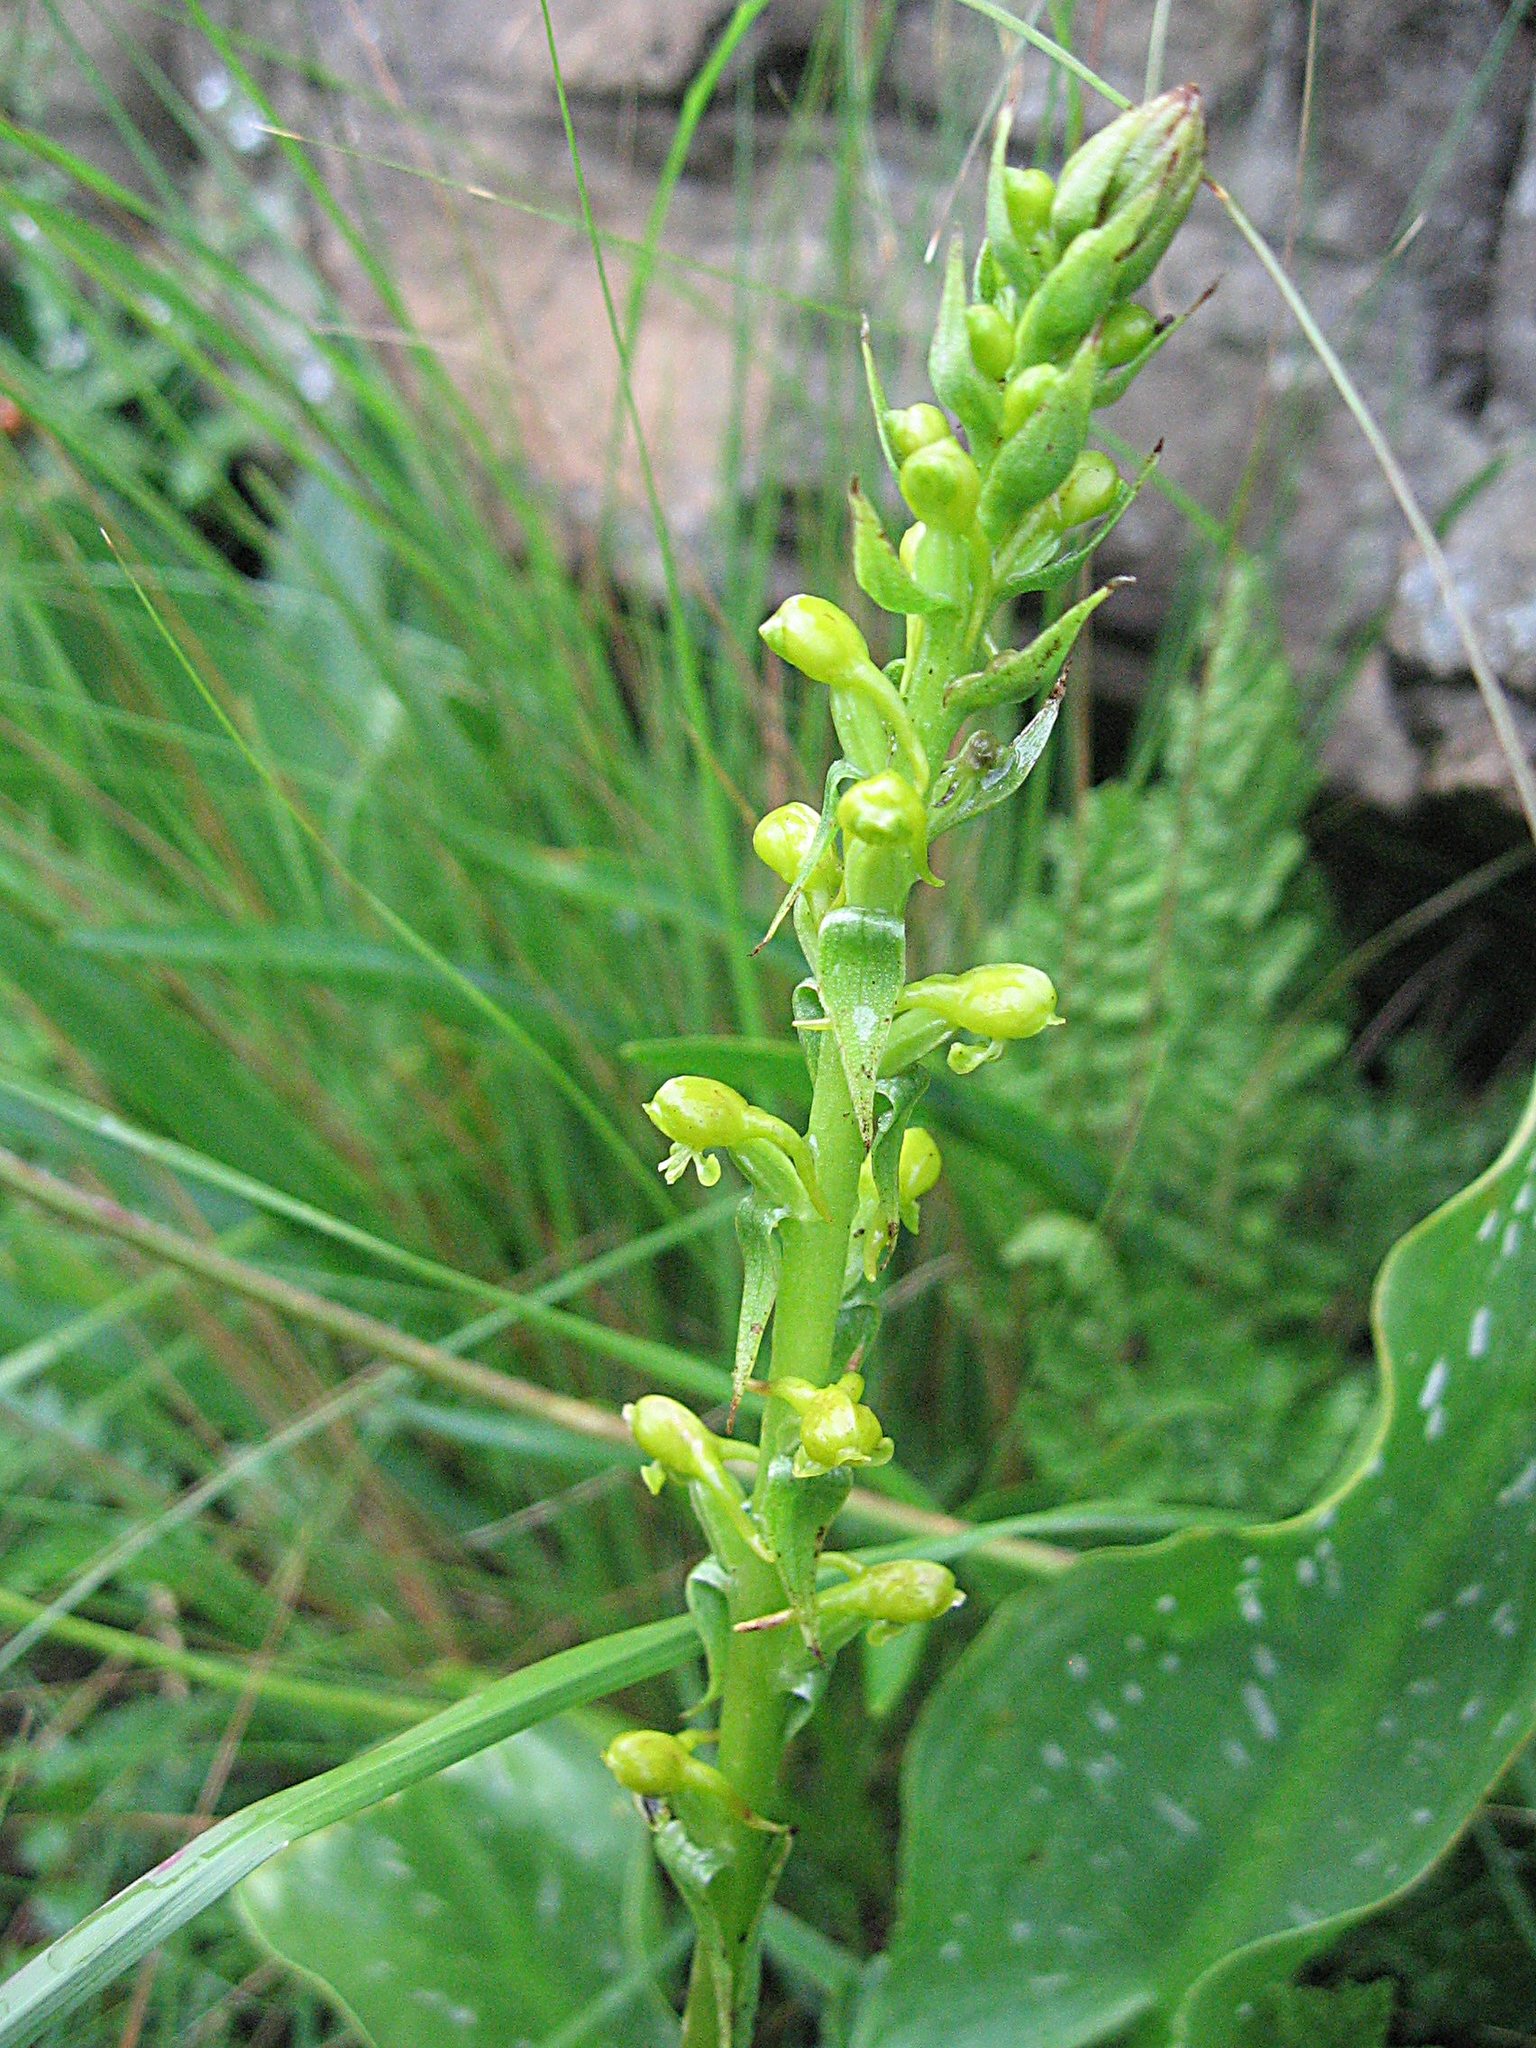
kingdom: Plantae
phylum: Tracheophyta
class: Liliopsida
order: Asparagales
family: Orchidaceae
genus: Satyrium
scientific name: Satyrium parviflorum
